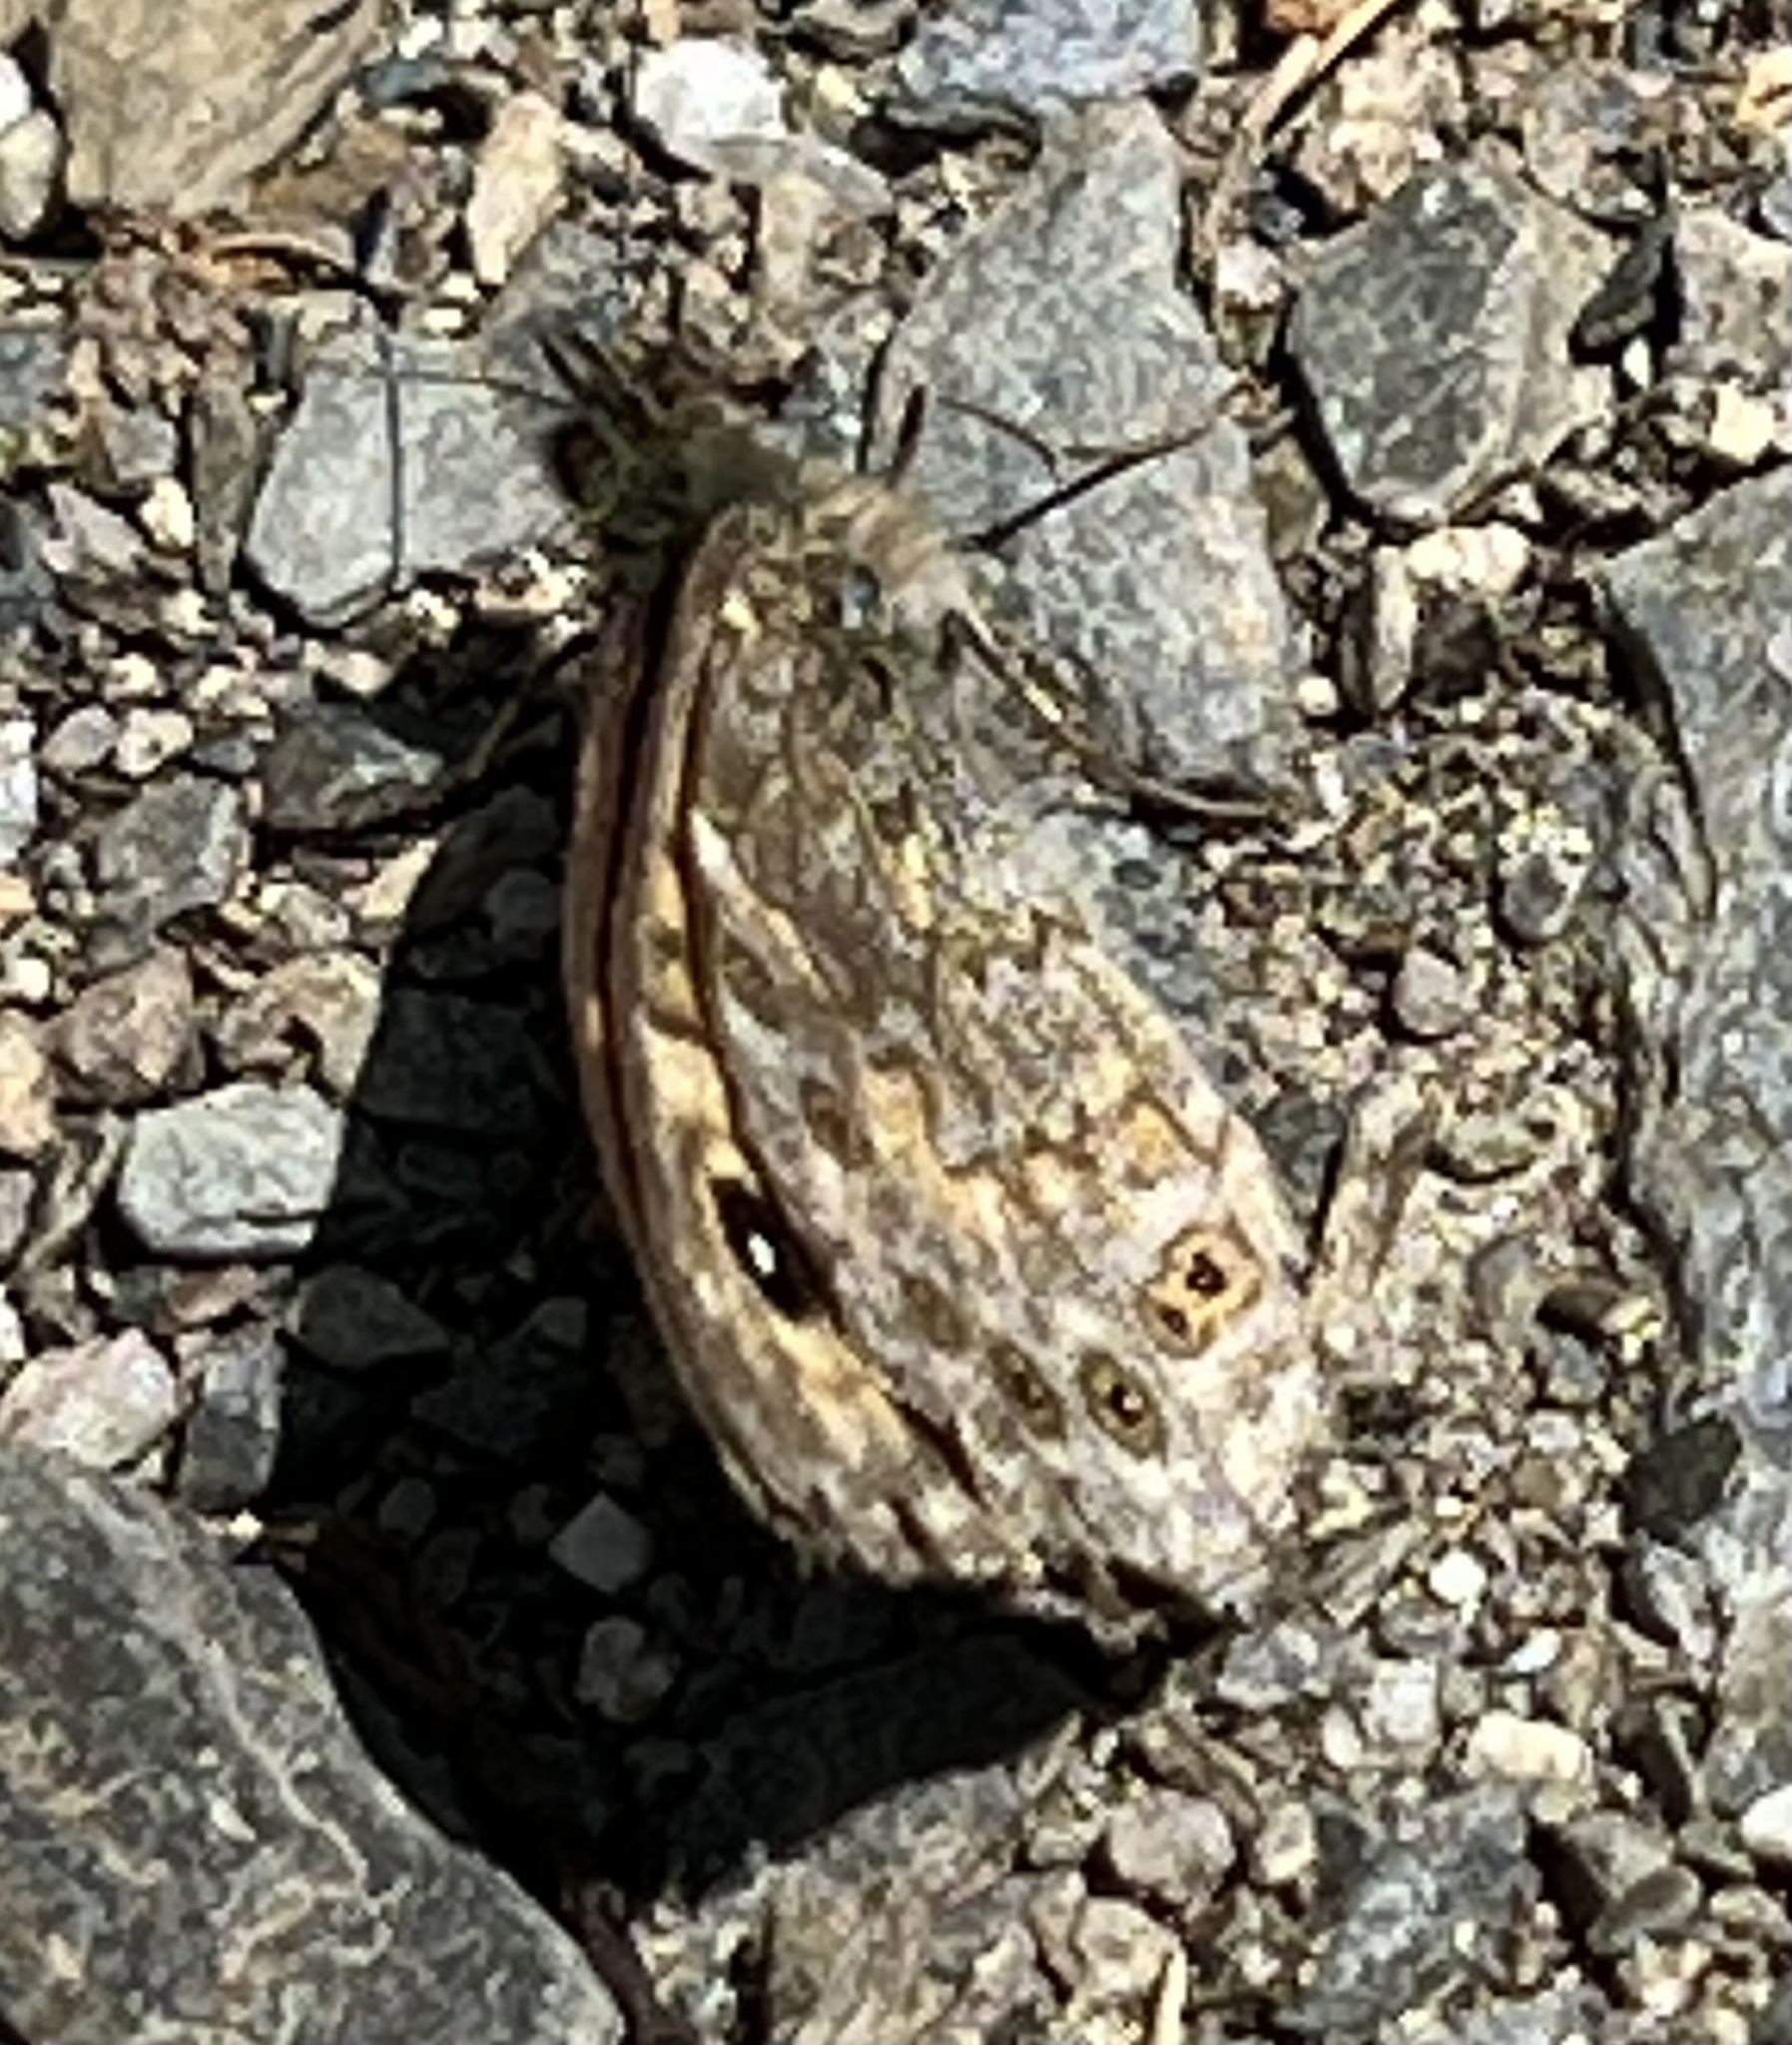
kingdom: Animalia
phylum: Arthropoda
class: Insecta
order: Lepidoptera
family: Nymphalidae
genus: Pararge
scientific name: Pararge Lasiommata megera
